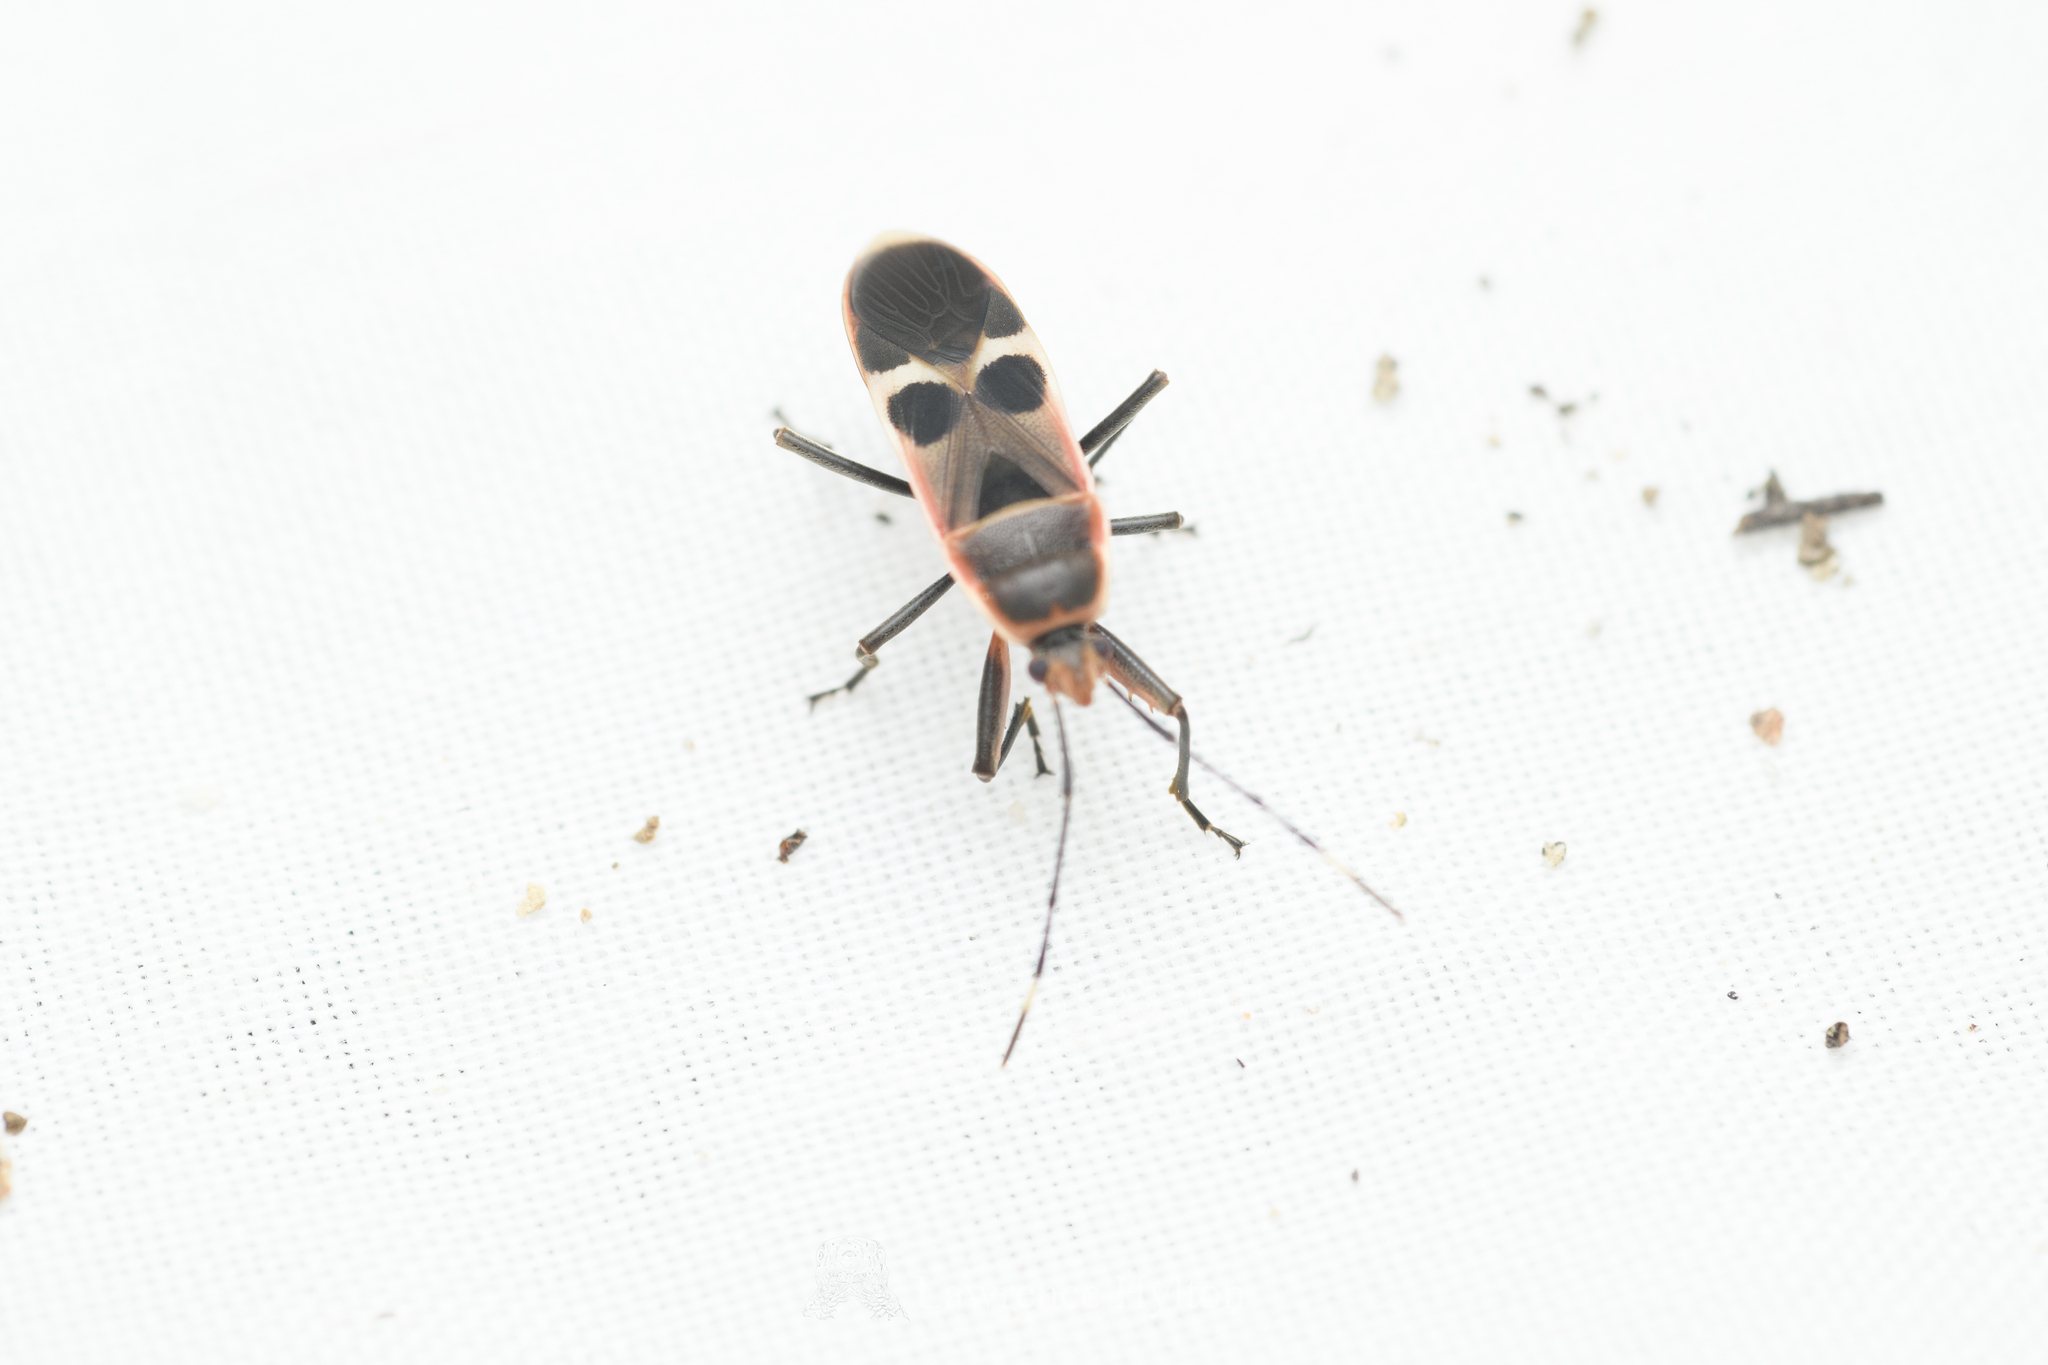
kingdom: Animalia
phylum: Arthropoda
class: Insecta
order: Hemiptera
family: Largidae
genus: Physopelta
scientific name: Physopelta gutta
